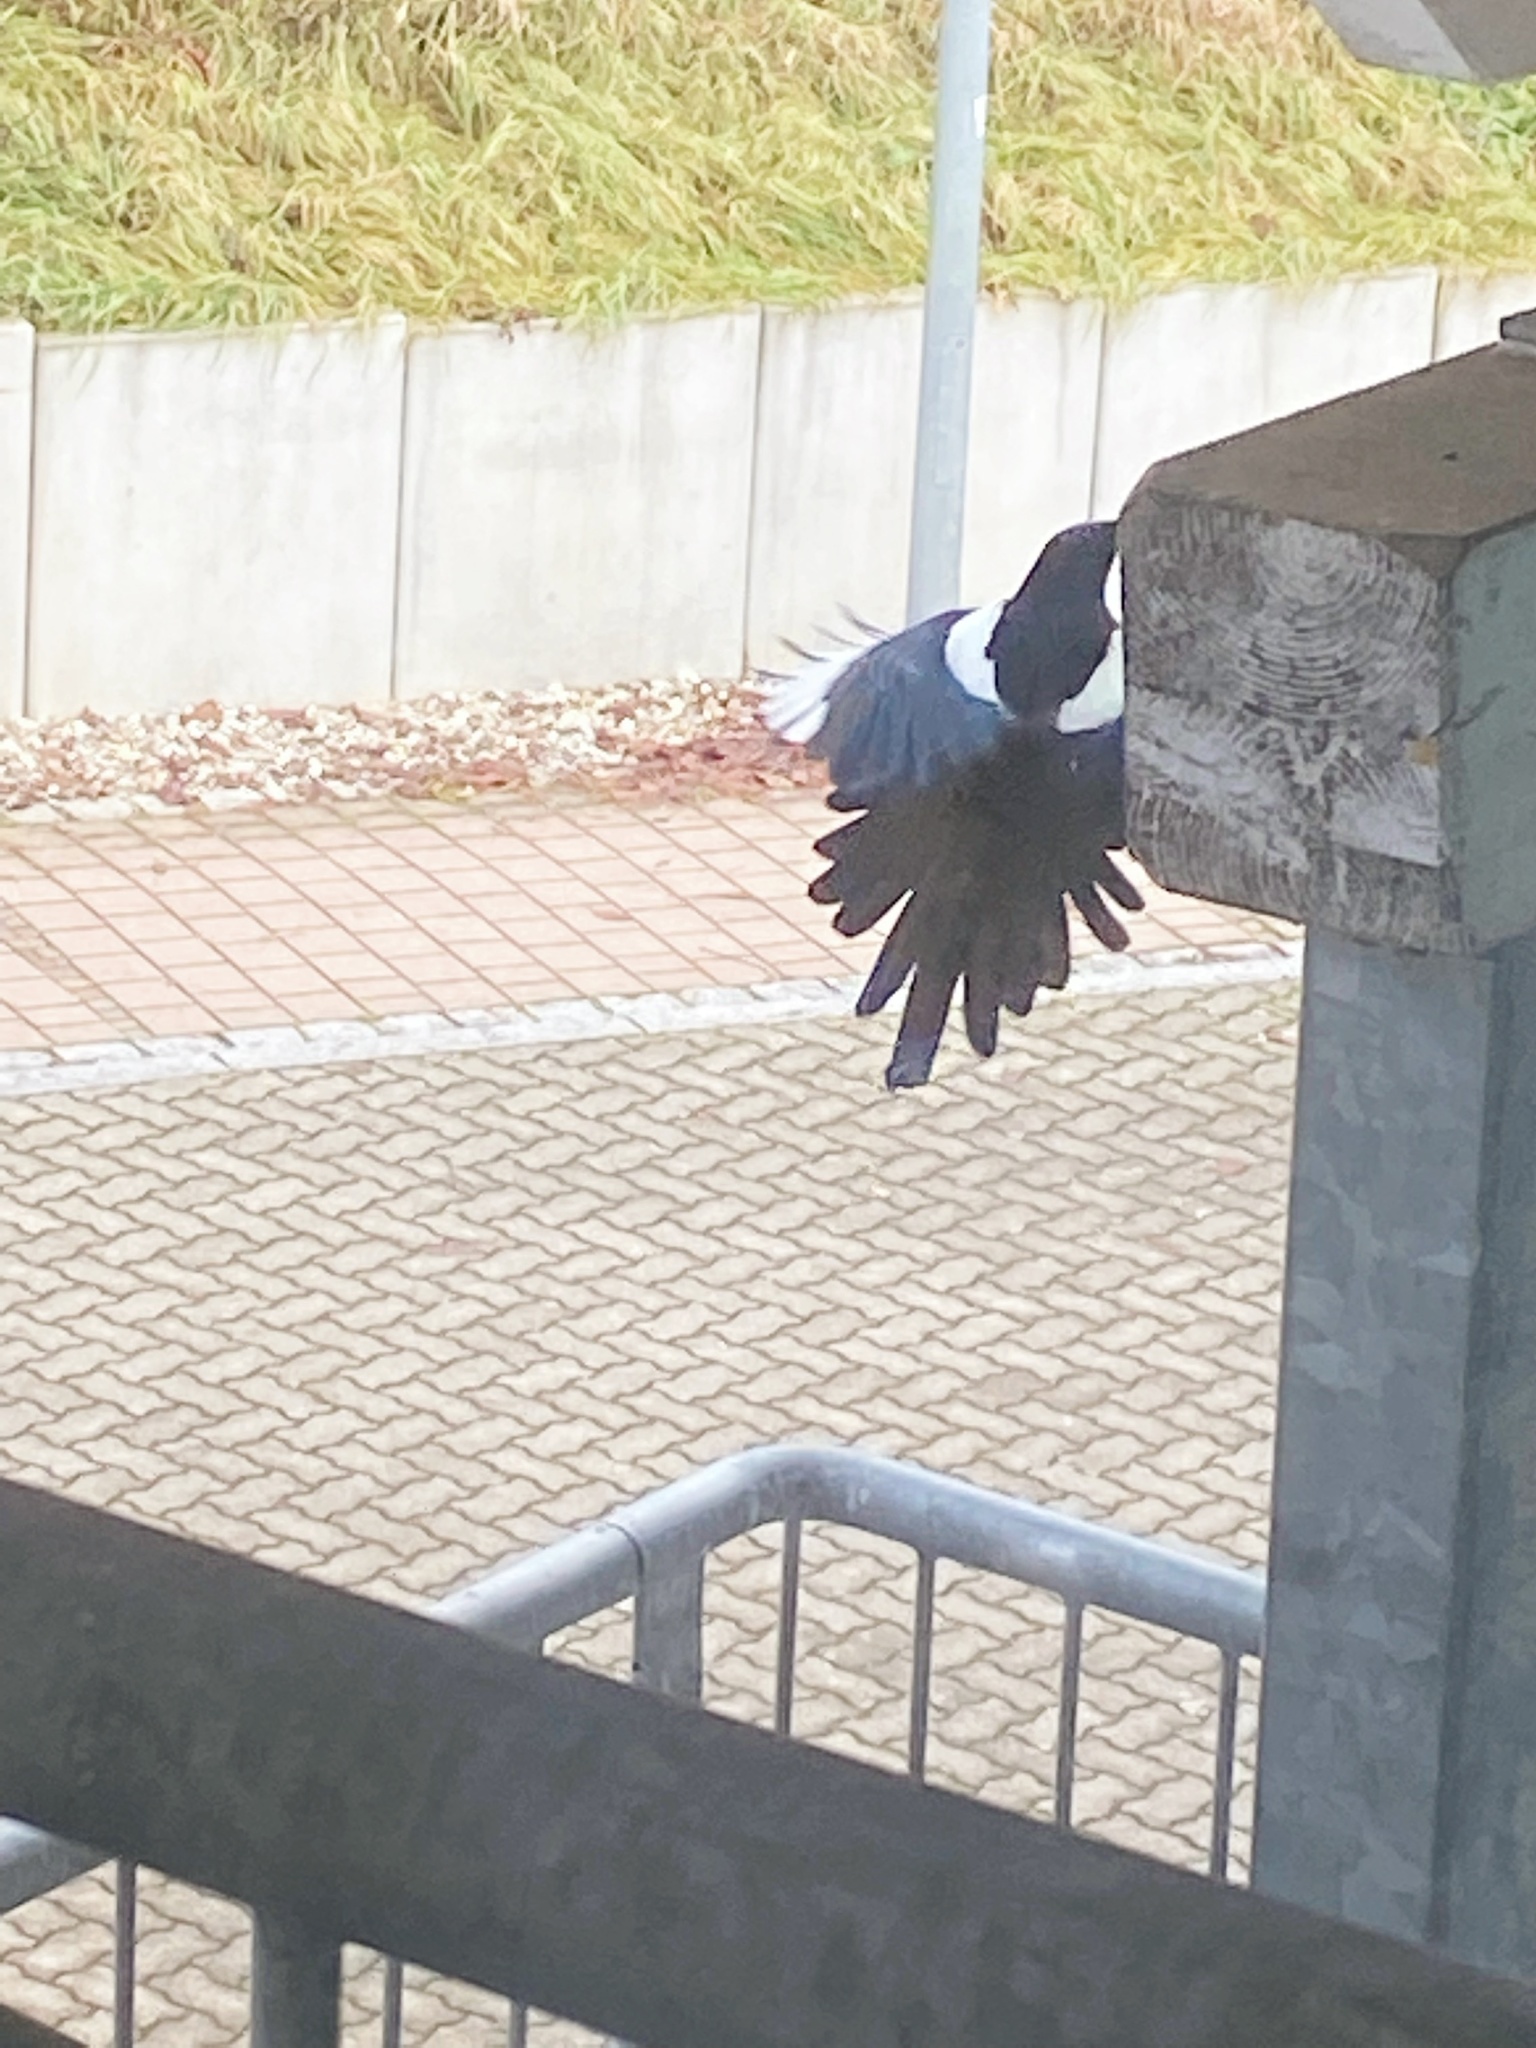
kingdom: Animalia
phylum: Chordata
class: Aves
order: Passeriformes
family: Corvidae
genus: Pica
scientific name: Pica pica
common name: Eurasian magpie
